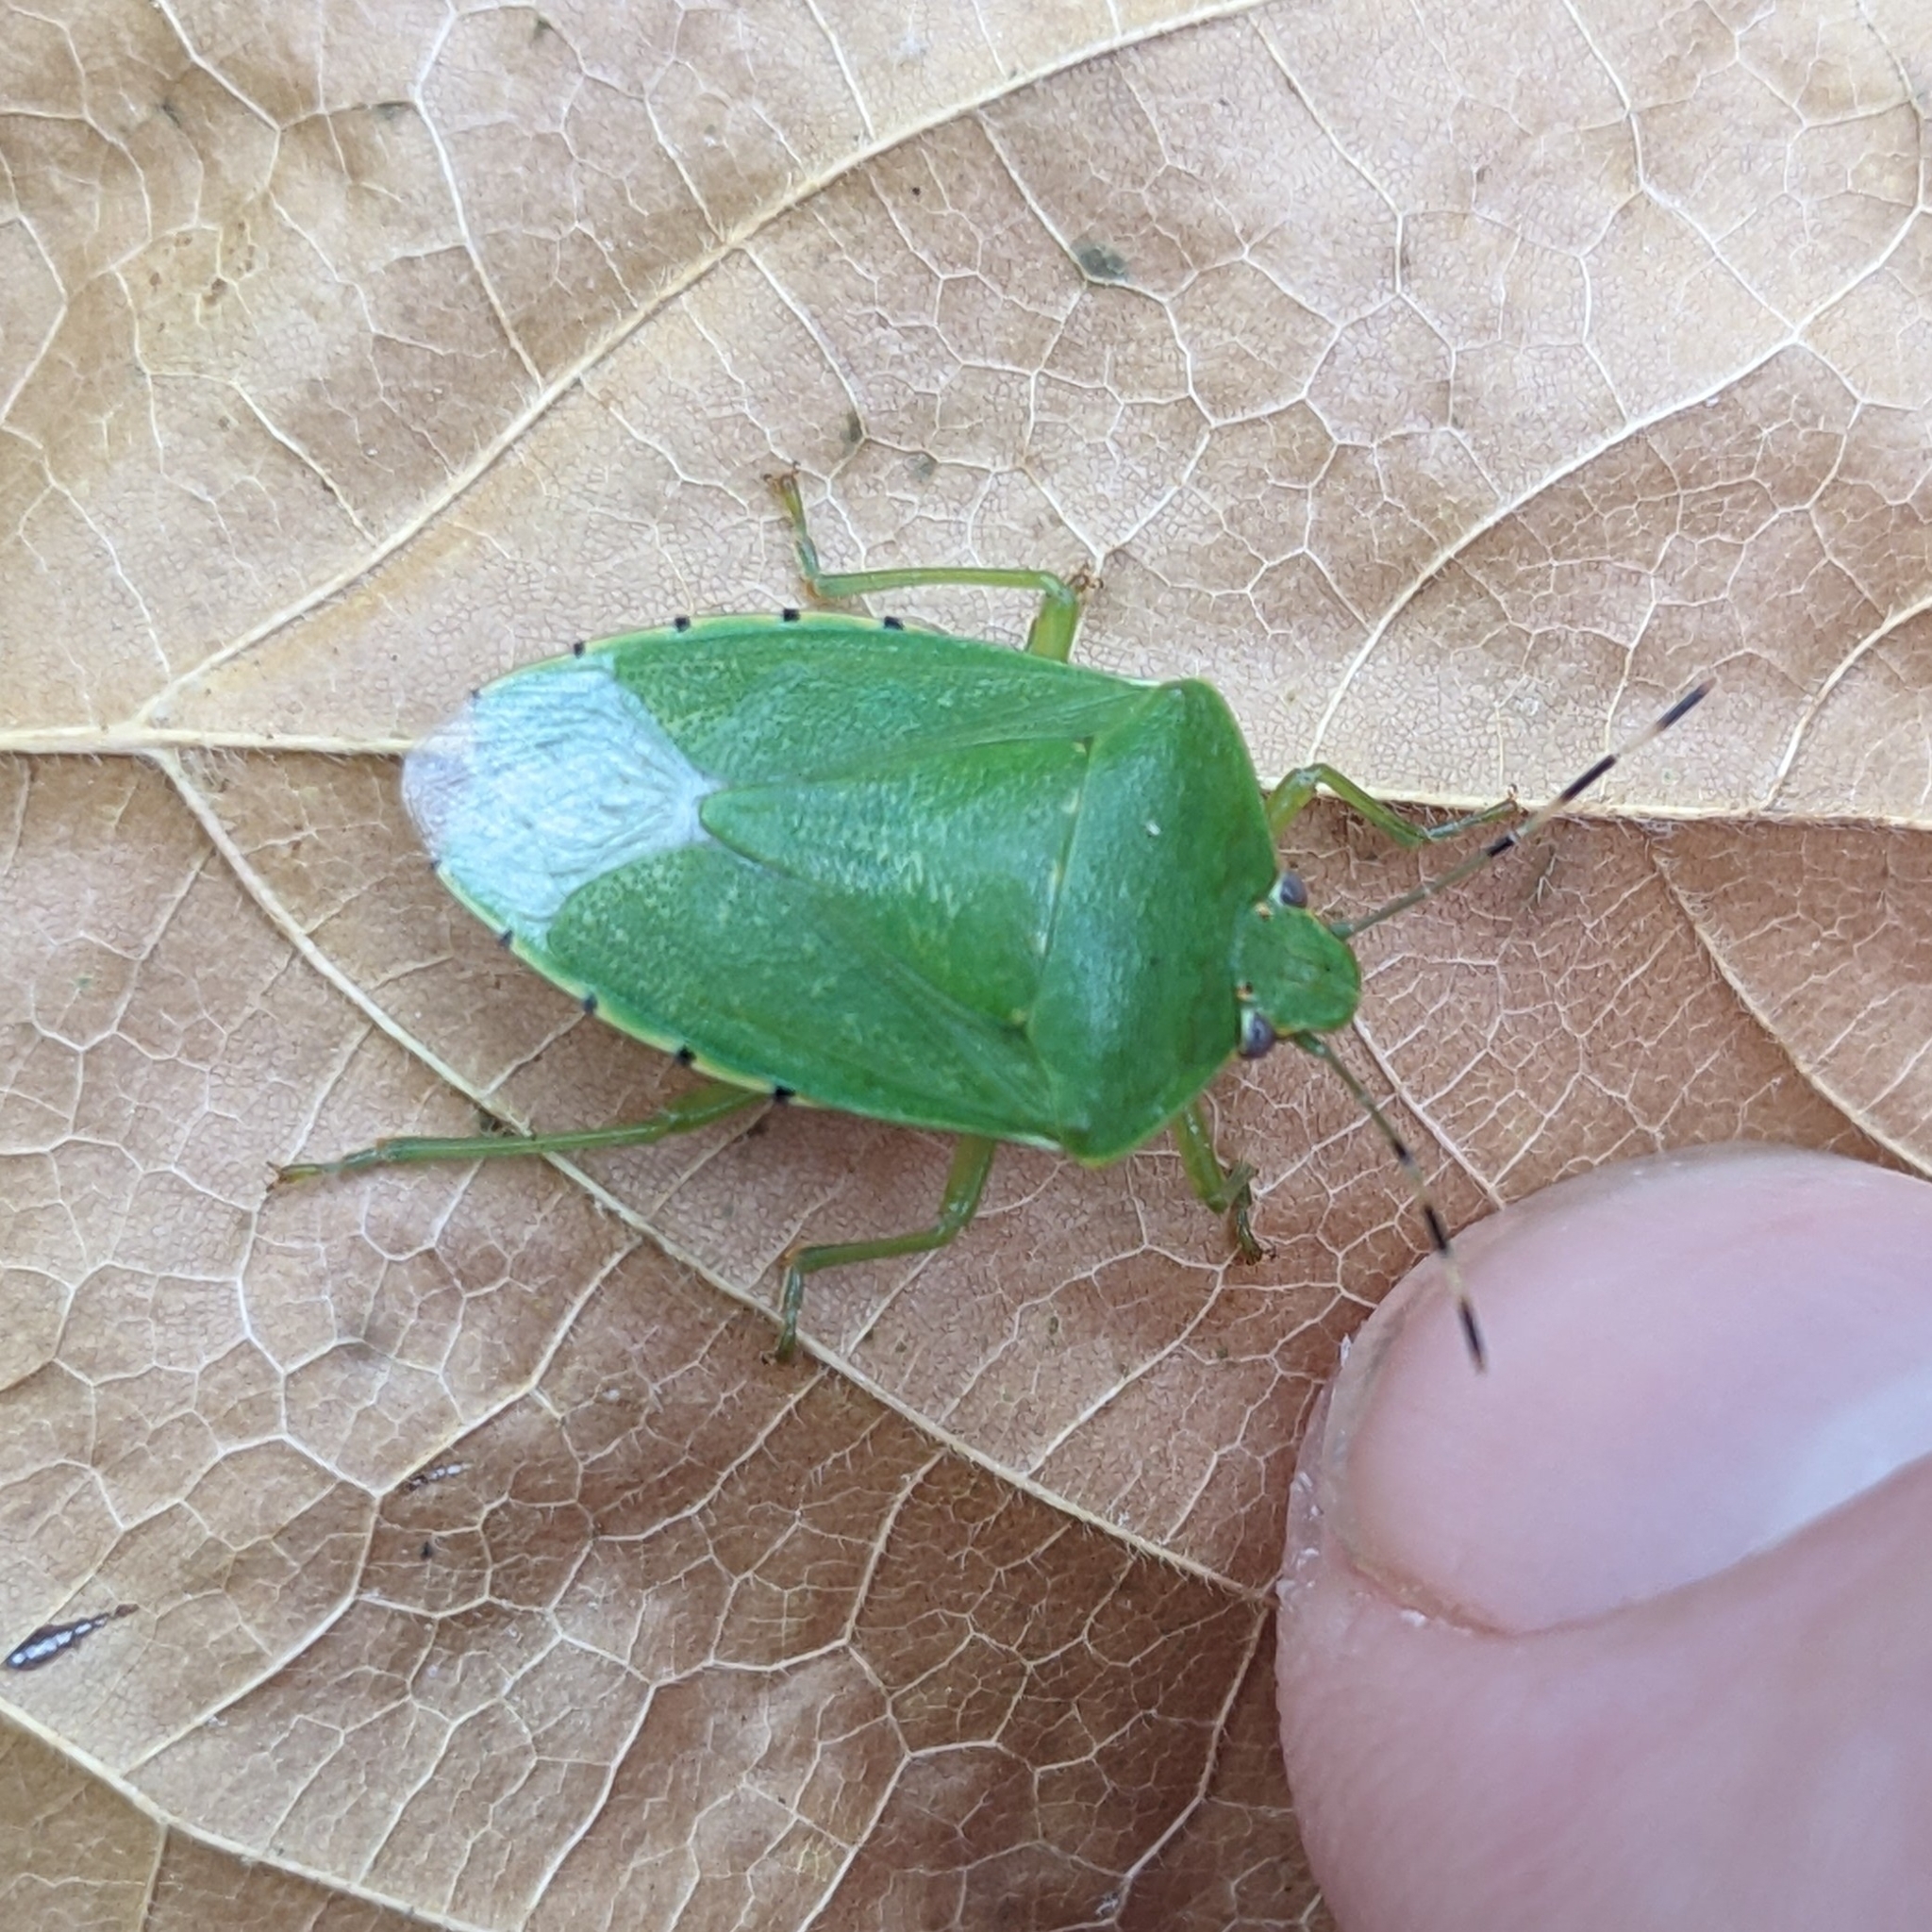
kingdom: Animalia
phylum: Arthropoda
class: Insecta
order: Hemiptera
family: Pentatomidae
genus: Chinavia
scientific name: Chinavia hilaris
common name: Green stink bug
